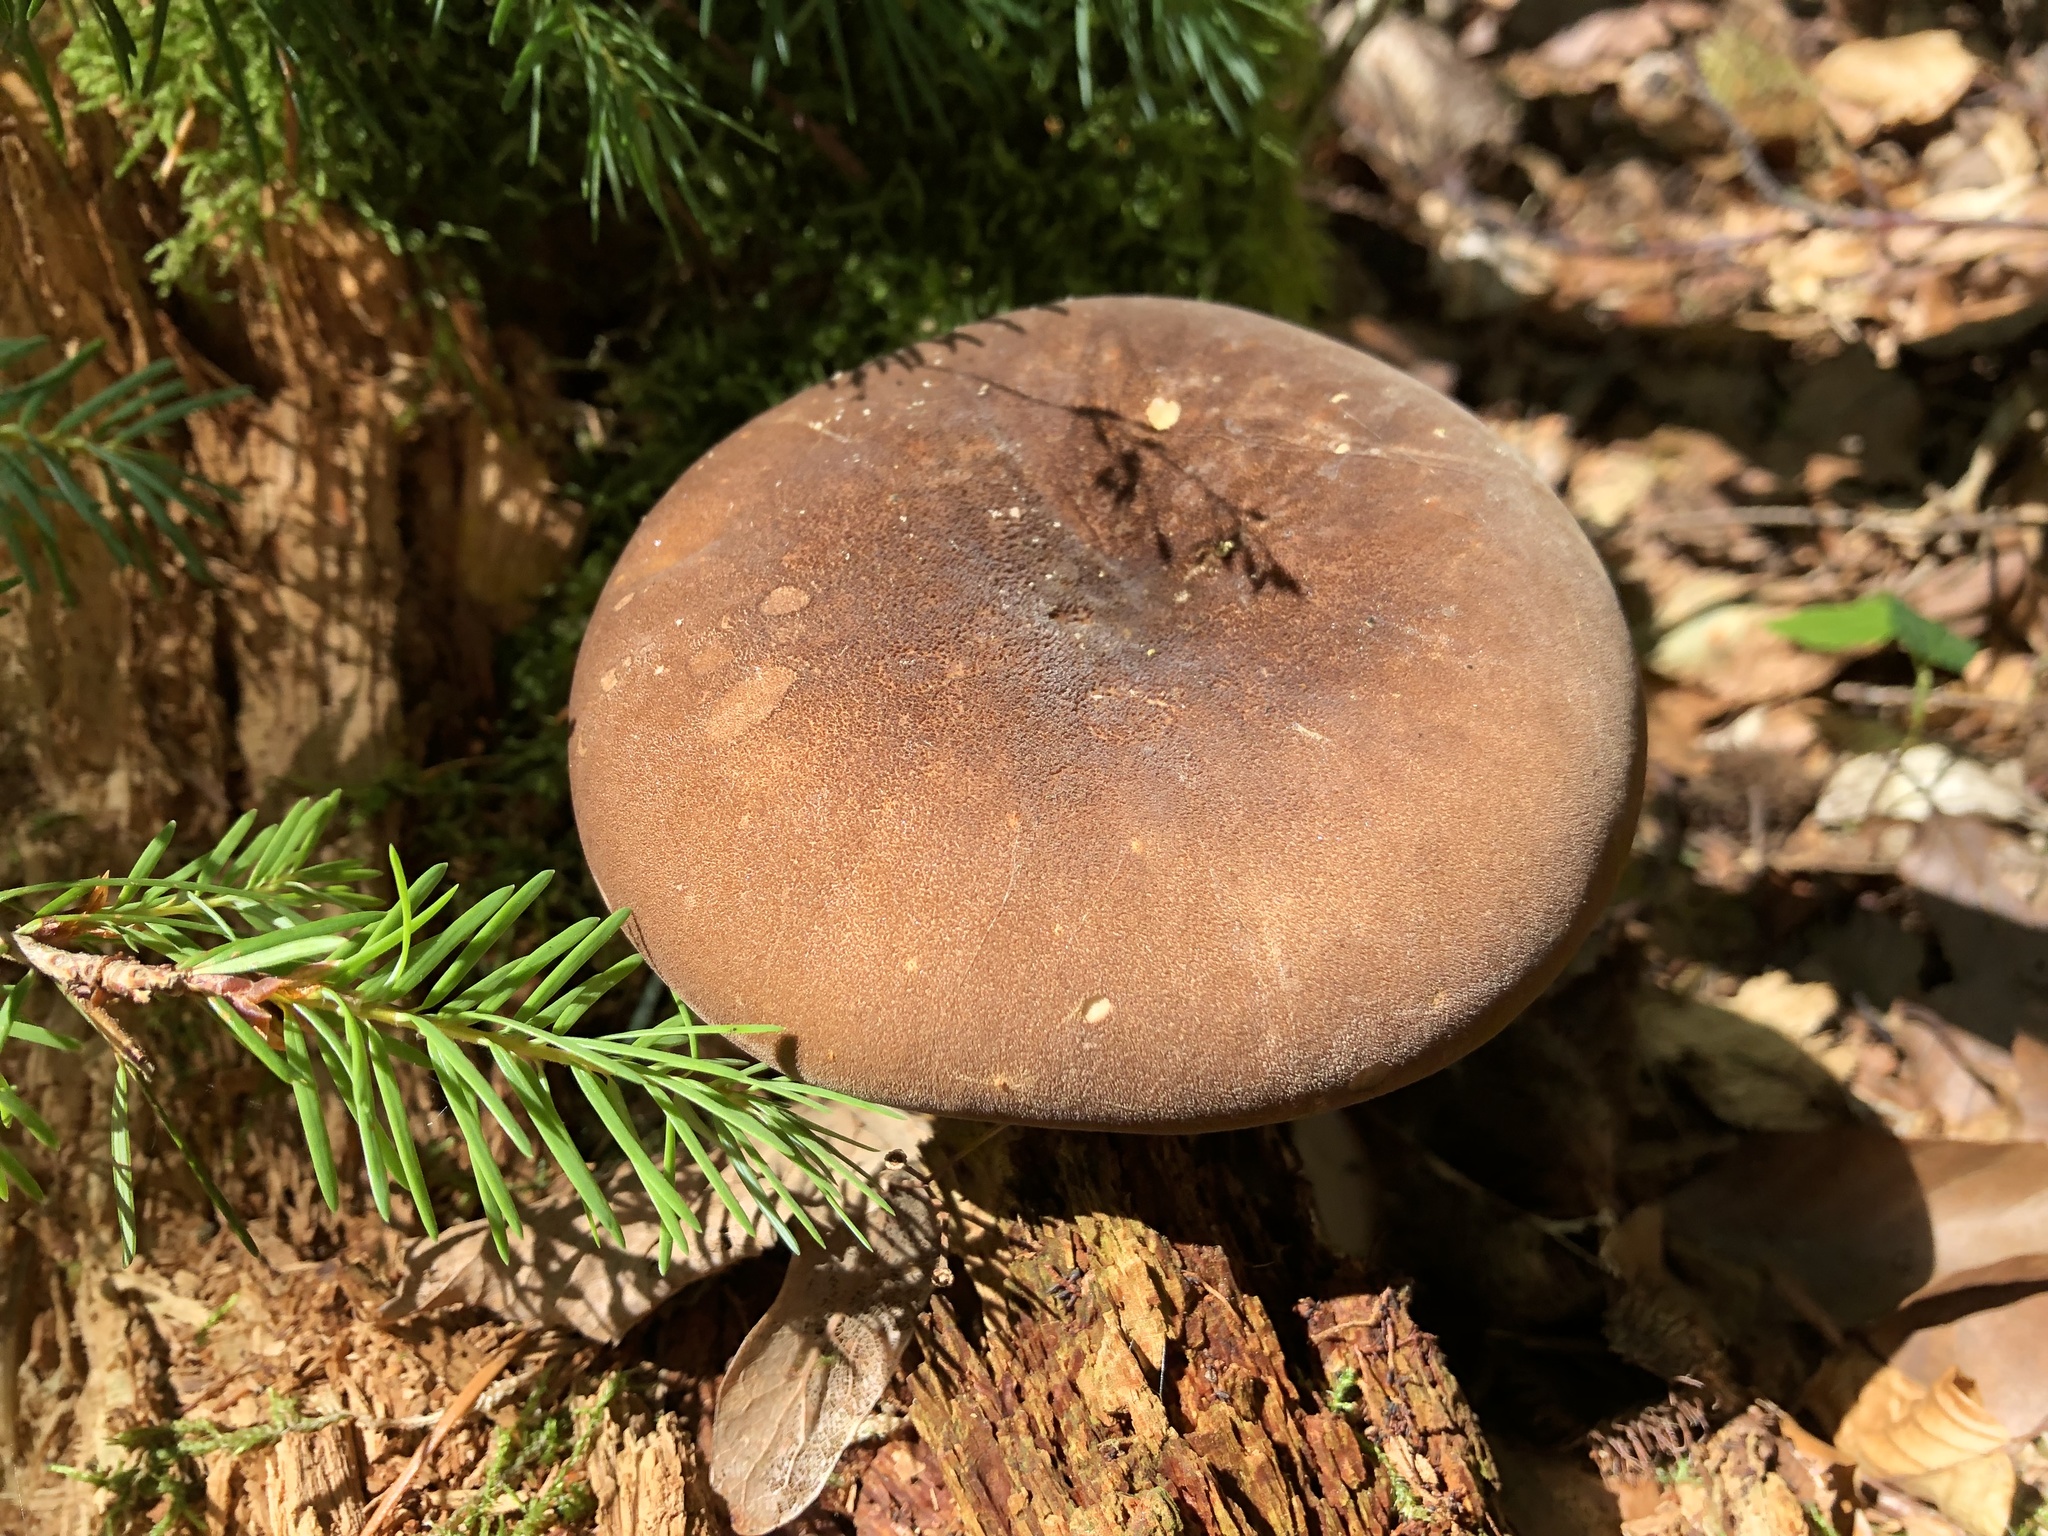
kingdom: Fungi
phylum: Basidiomycota
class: Agaricomycetes
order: Boletales
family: Tapinellaceae
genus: Tapinella
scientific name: Tapinella atrotomentosa
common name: Velvet rollrim
